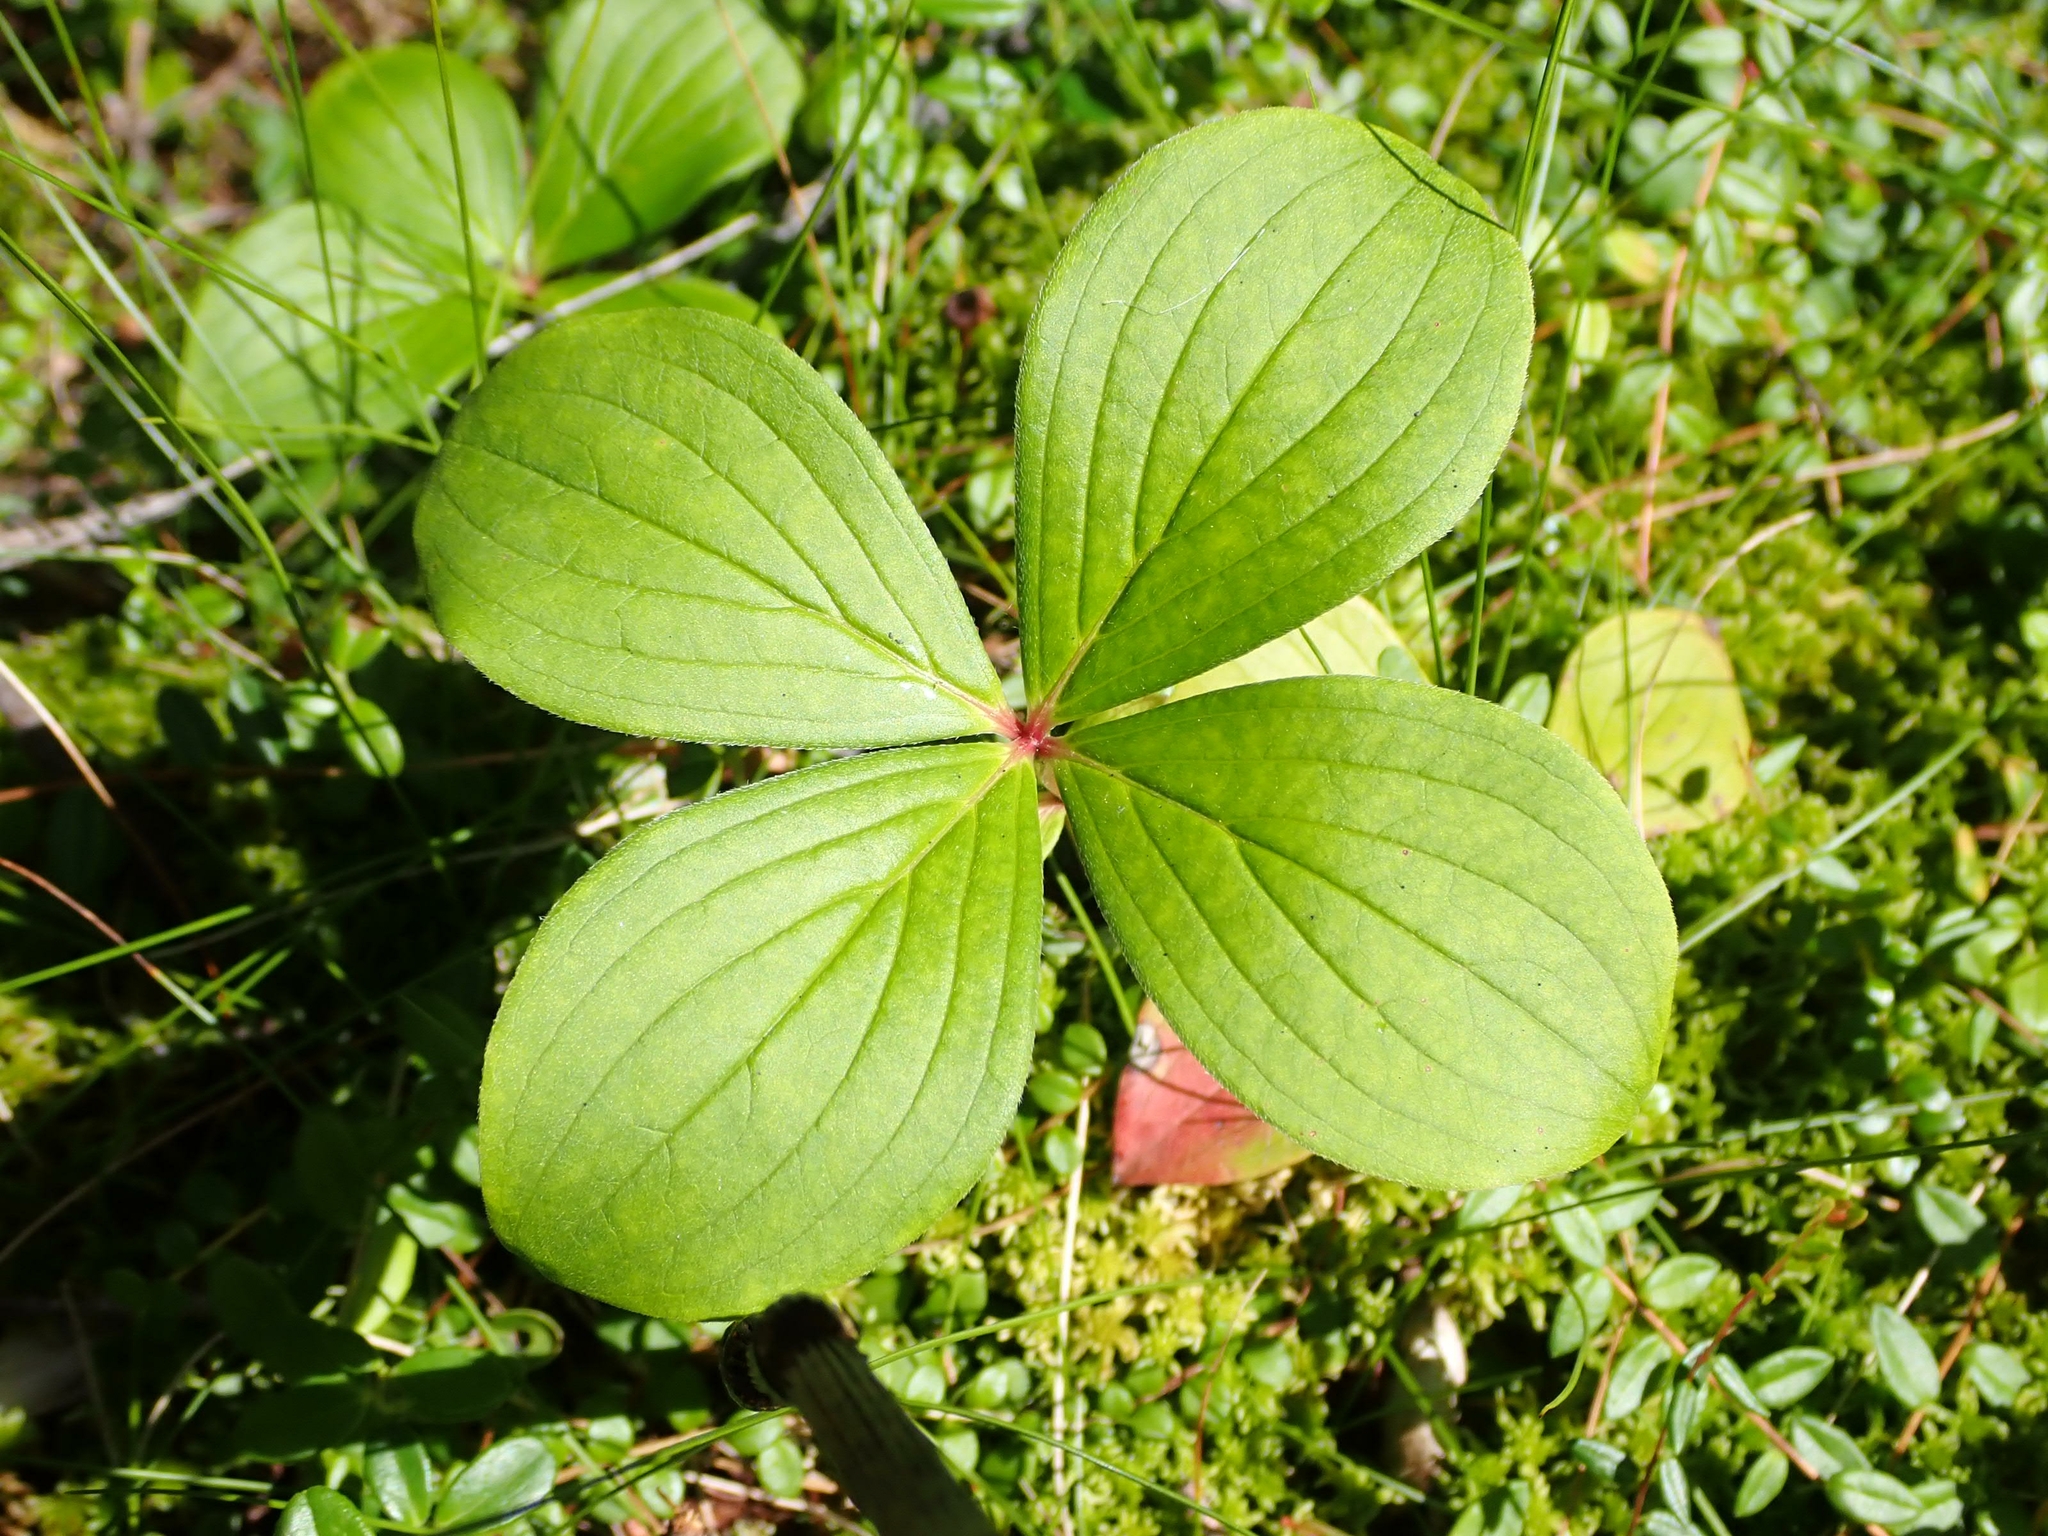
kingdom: Plantae
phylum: Tracheophyta
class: Magnoliopsida
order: Cornales
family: Cornaceae
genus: Cornus
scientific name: Cornus canadensis
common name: Creeping dogwood
